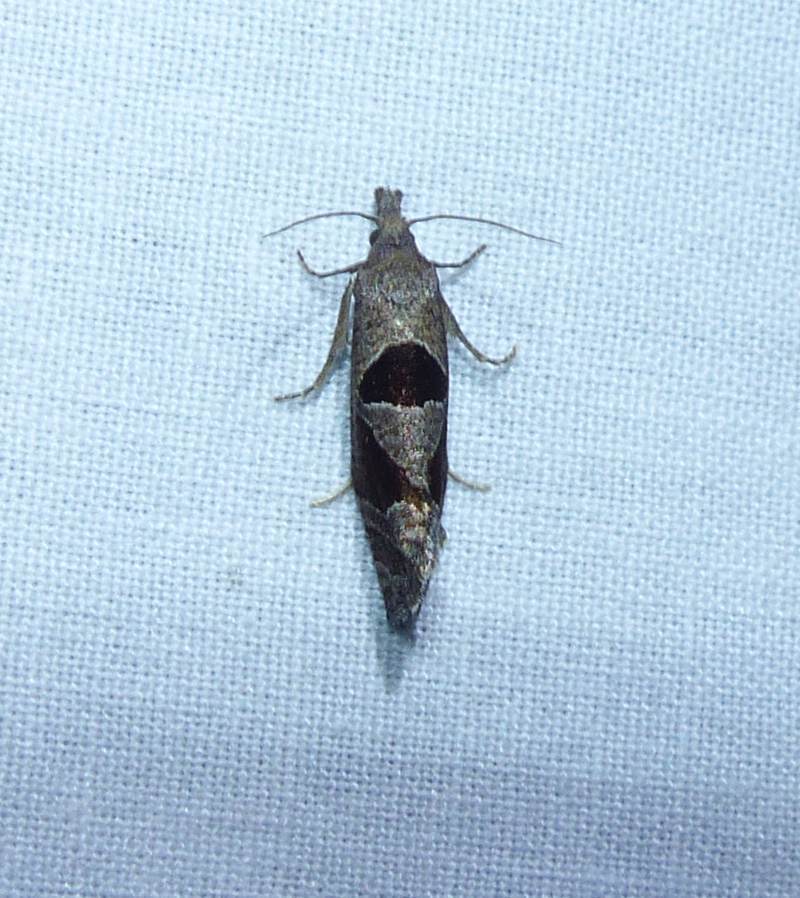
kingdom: Animalia
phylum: Arthropoda
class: Insecta
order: Lepidoptera
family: Tortricidae
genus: Pelochrista
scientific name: Pelochrista dorsisignatana
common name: Triangle-backed pelochrista moth
